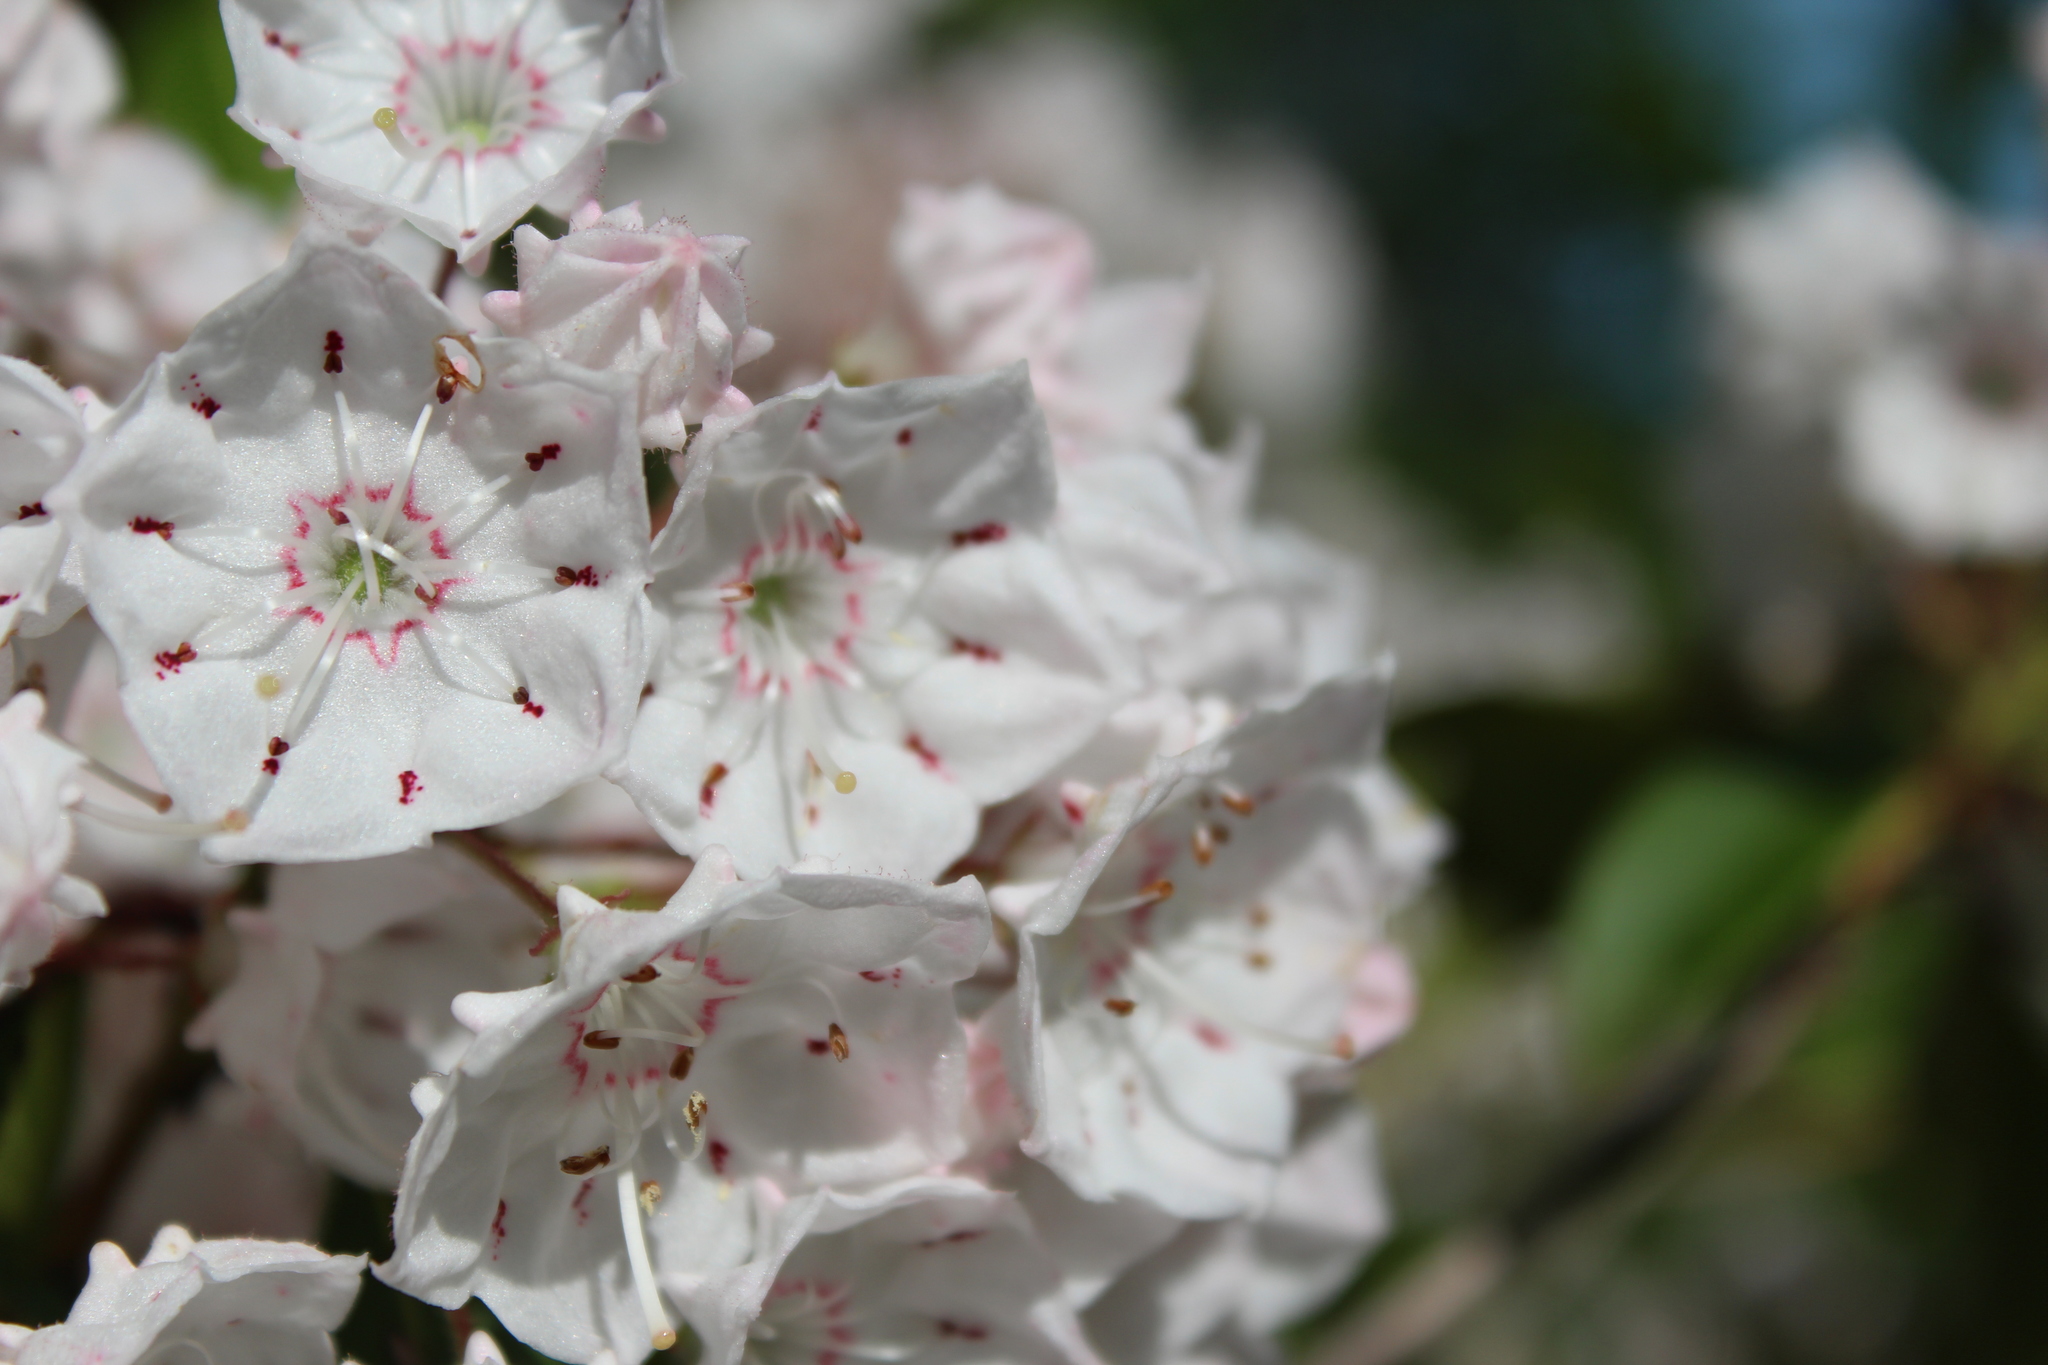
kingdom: Plantae
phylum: Tracheophyta
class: Magnoliopsida
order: Ericales
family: Ericaceae
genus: Kalmia
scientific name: Kalmia latifolia
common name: Mountain-laurel
